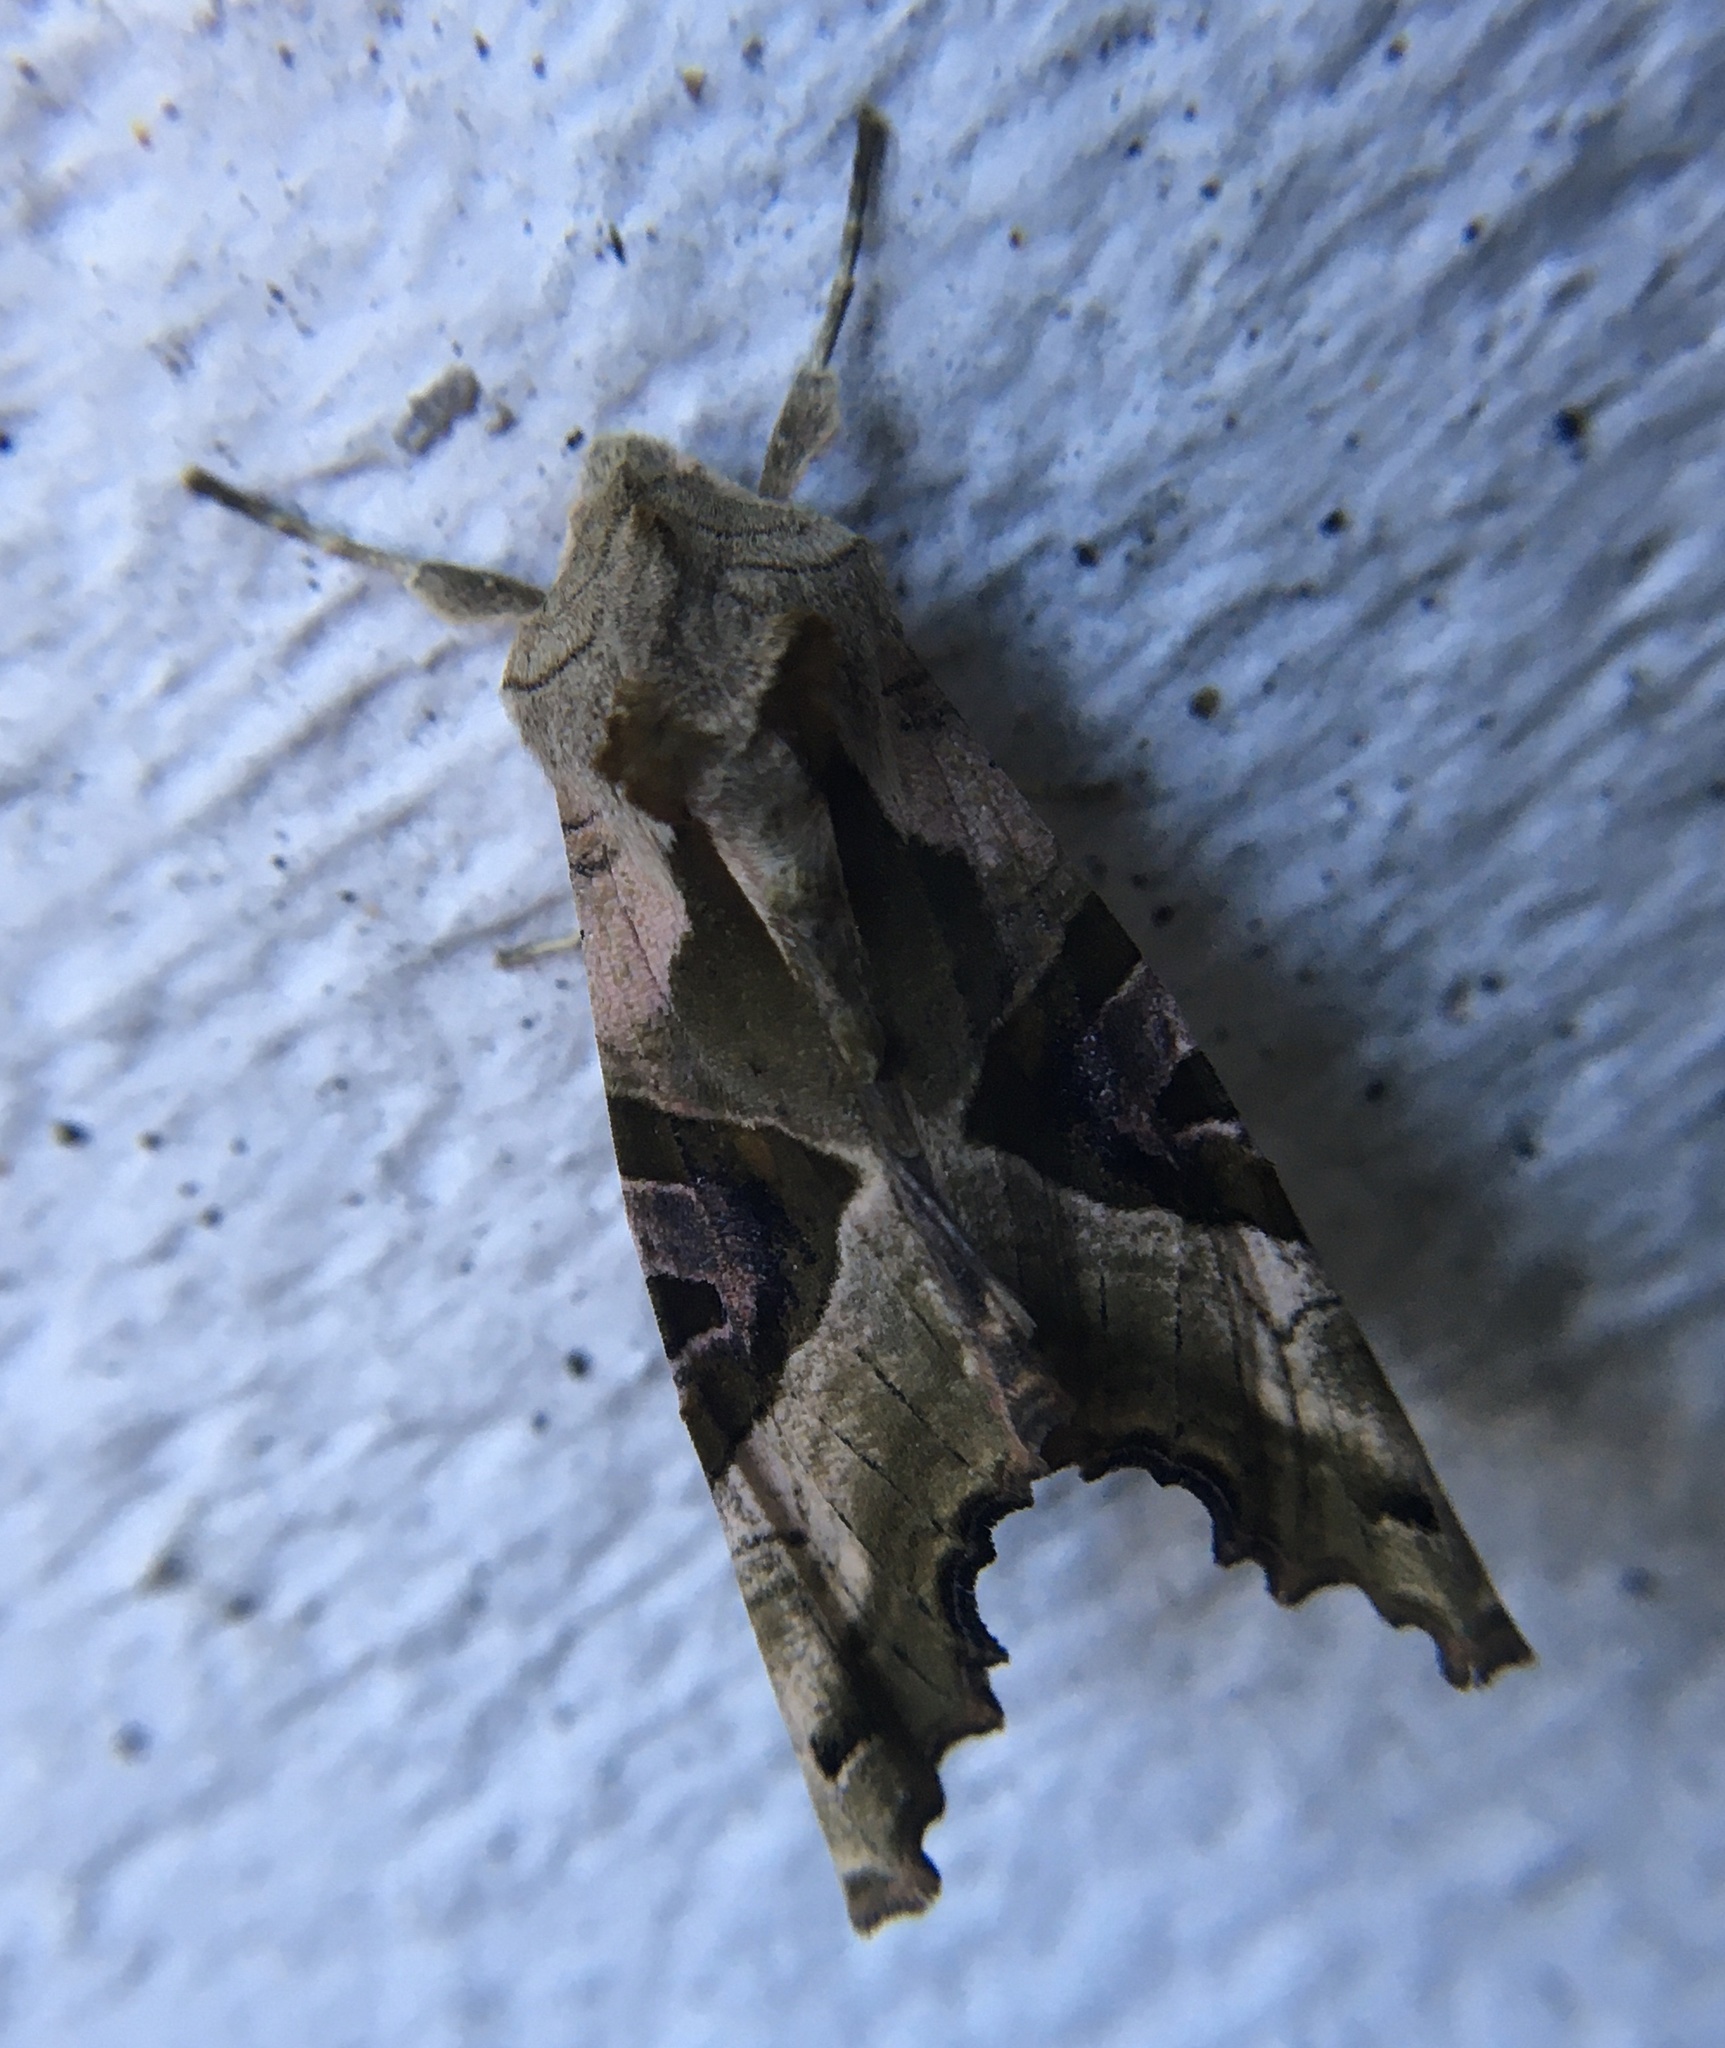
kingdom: Animalia
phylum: Arthropoda
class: Insecta
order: Lepidoptera
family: Noctuidae
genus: Phlogophora
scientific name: Phlogophora meticulosa
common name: Angle shades
